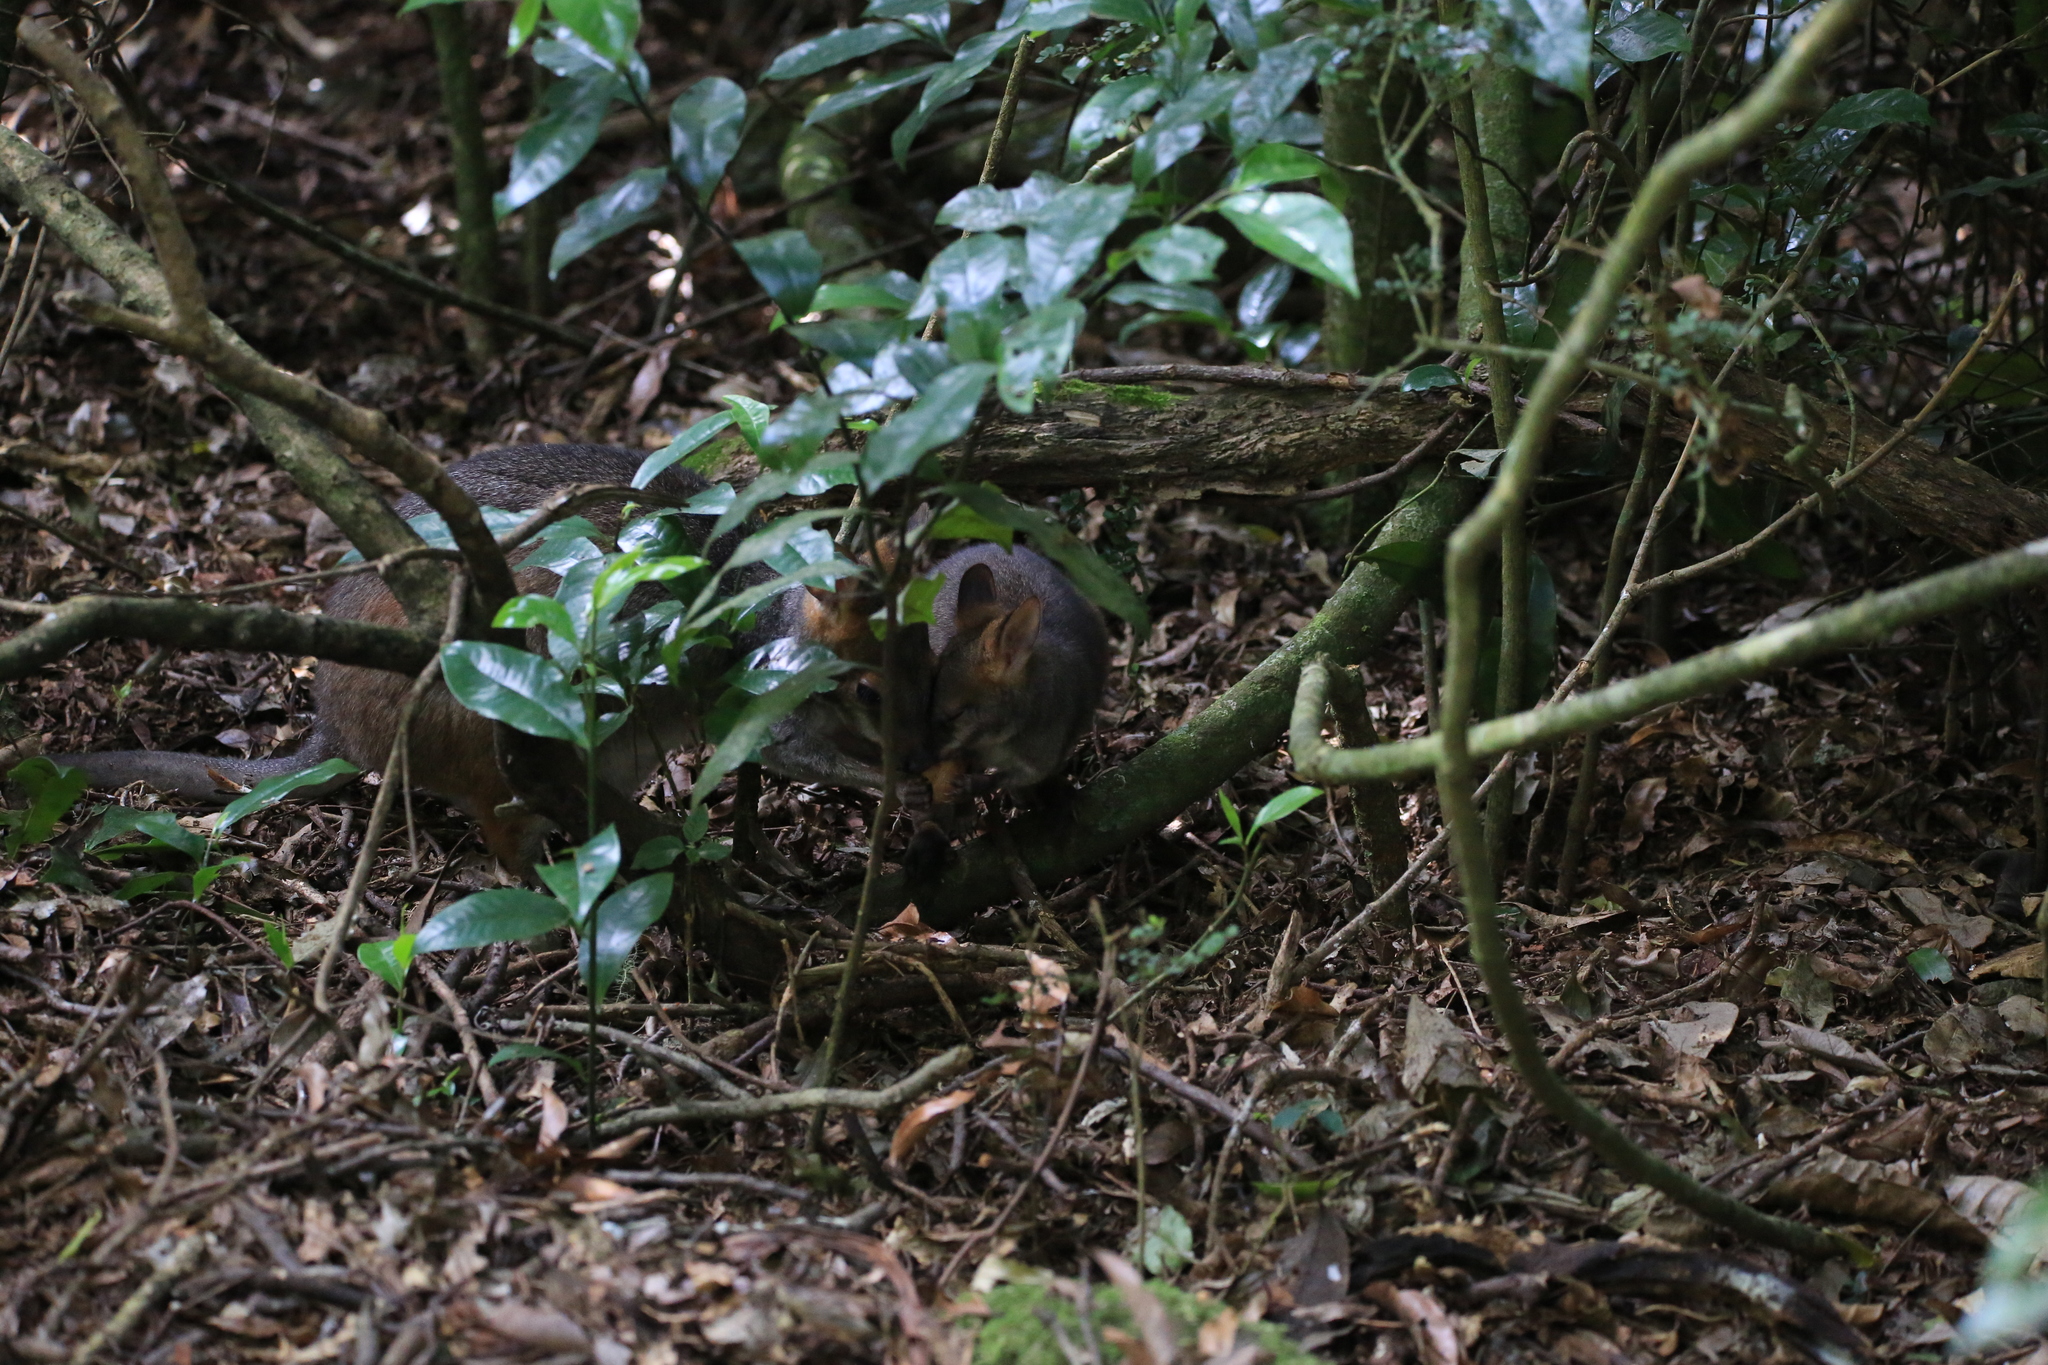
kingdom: Animalia
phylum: Chordata
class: Mammalia
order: Diprotodontia
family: Macropodidae
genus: Thylogale
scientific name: Thylogale stigmatica
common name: Red-legged pademelon
